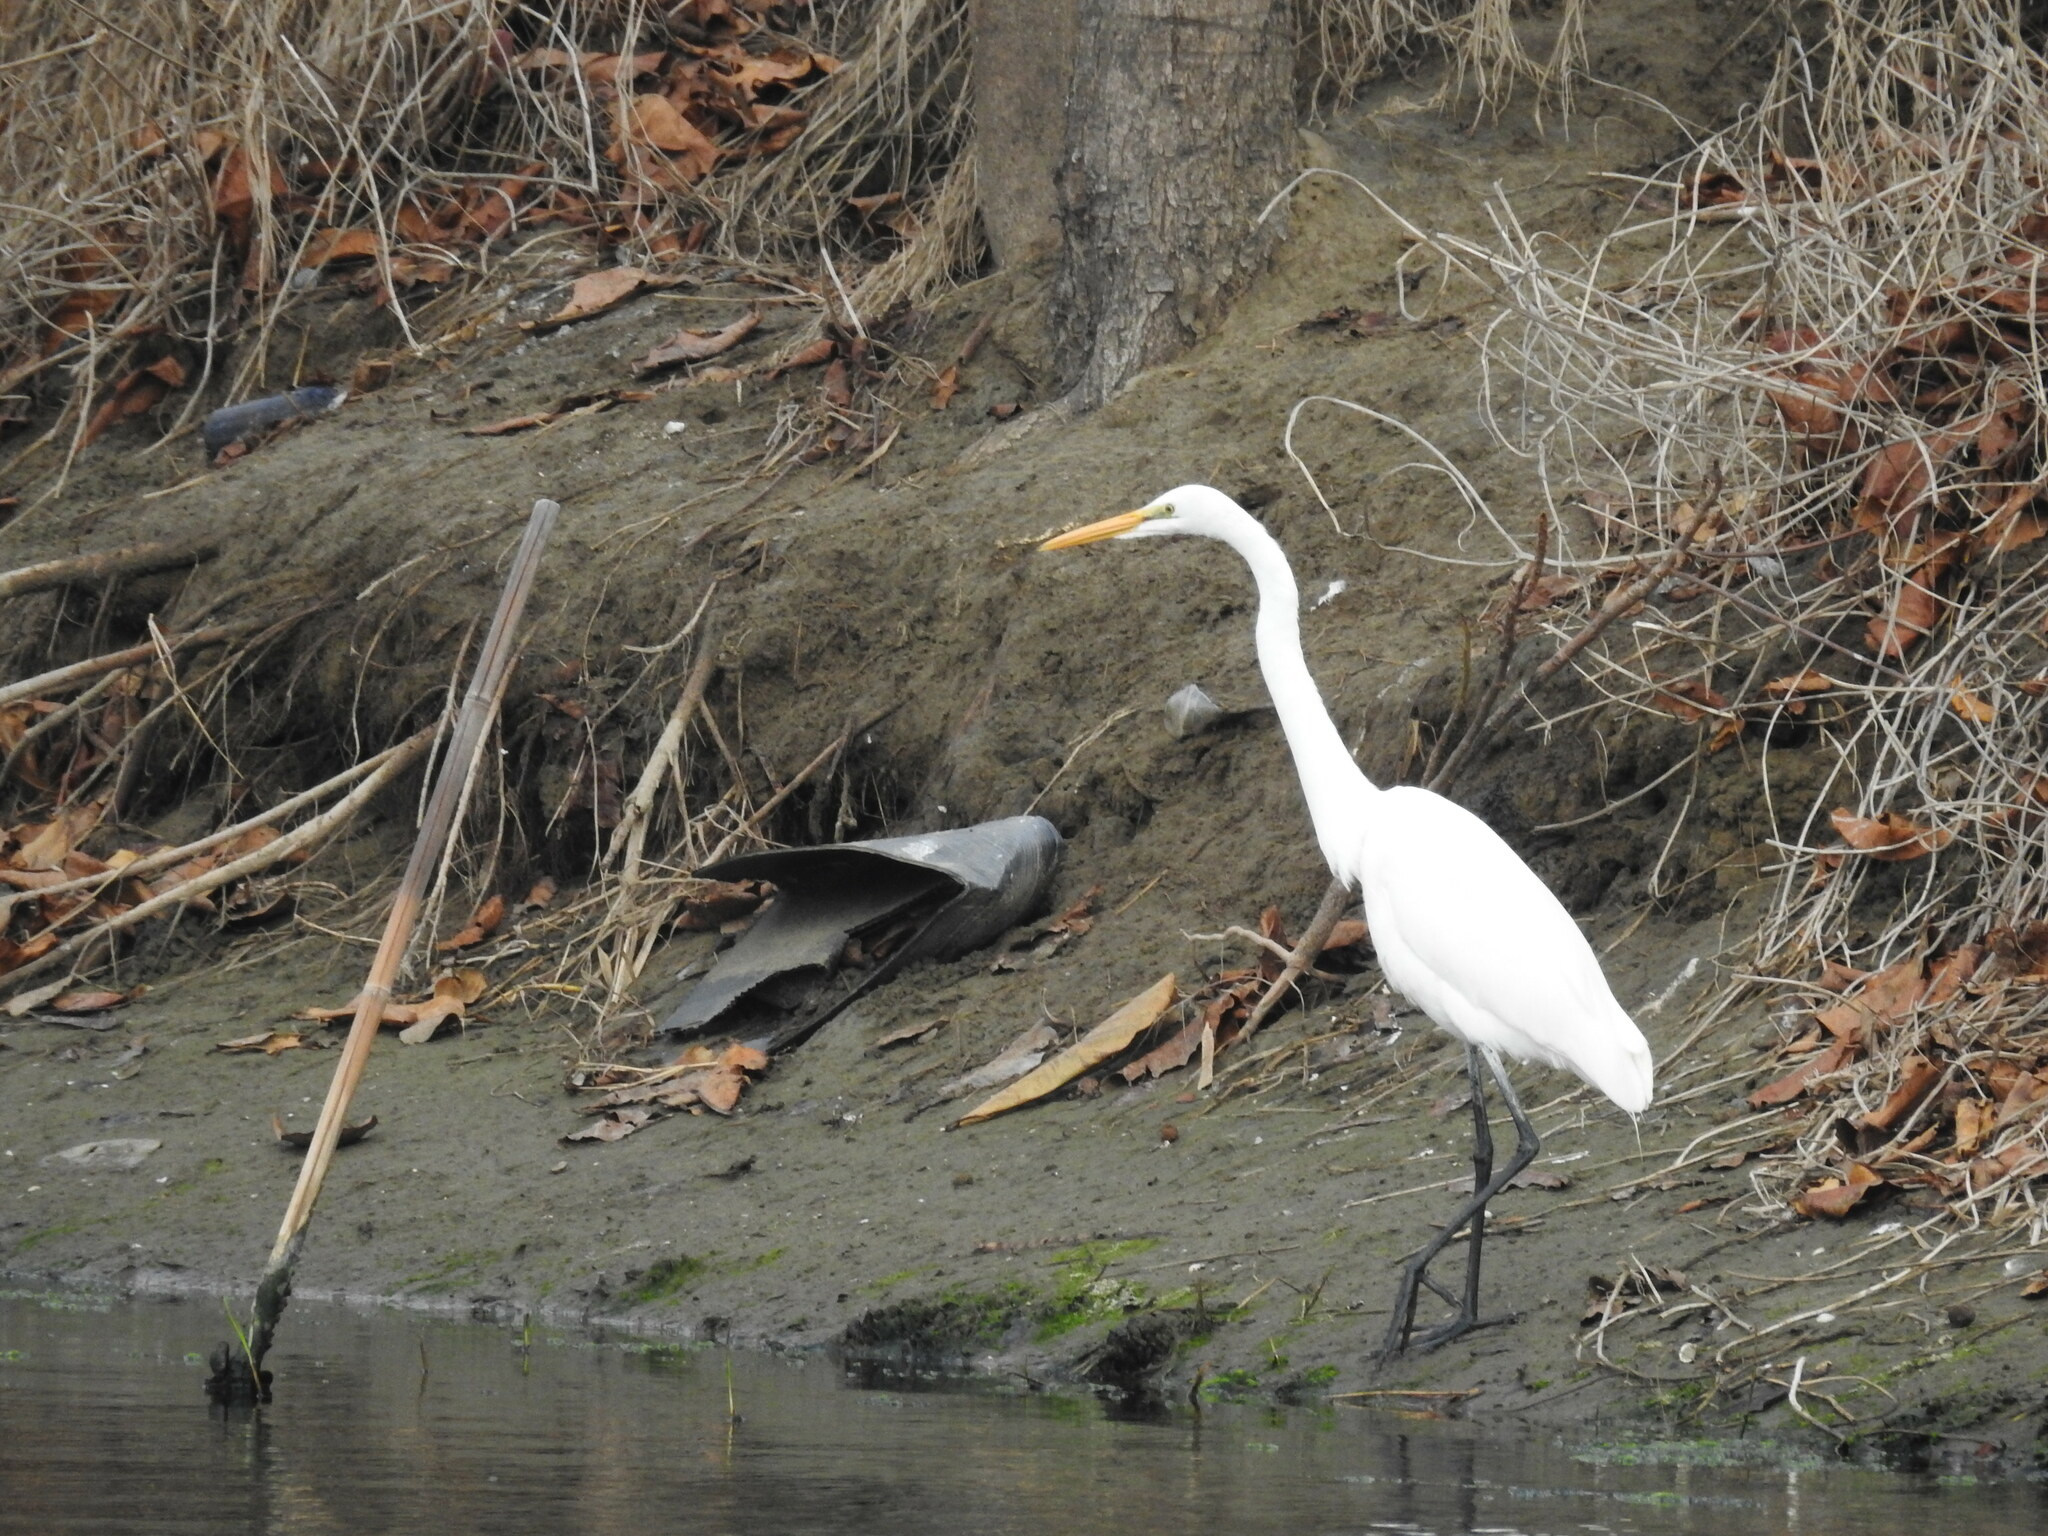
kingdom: Animalia
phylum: Chordata
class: Aves
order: Pelecaniformes
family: Ardeidae
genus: Ardea
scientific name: Ardea alba
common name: Great egret
